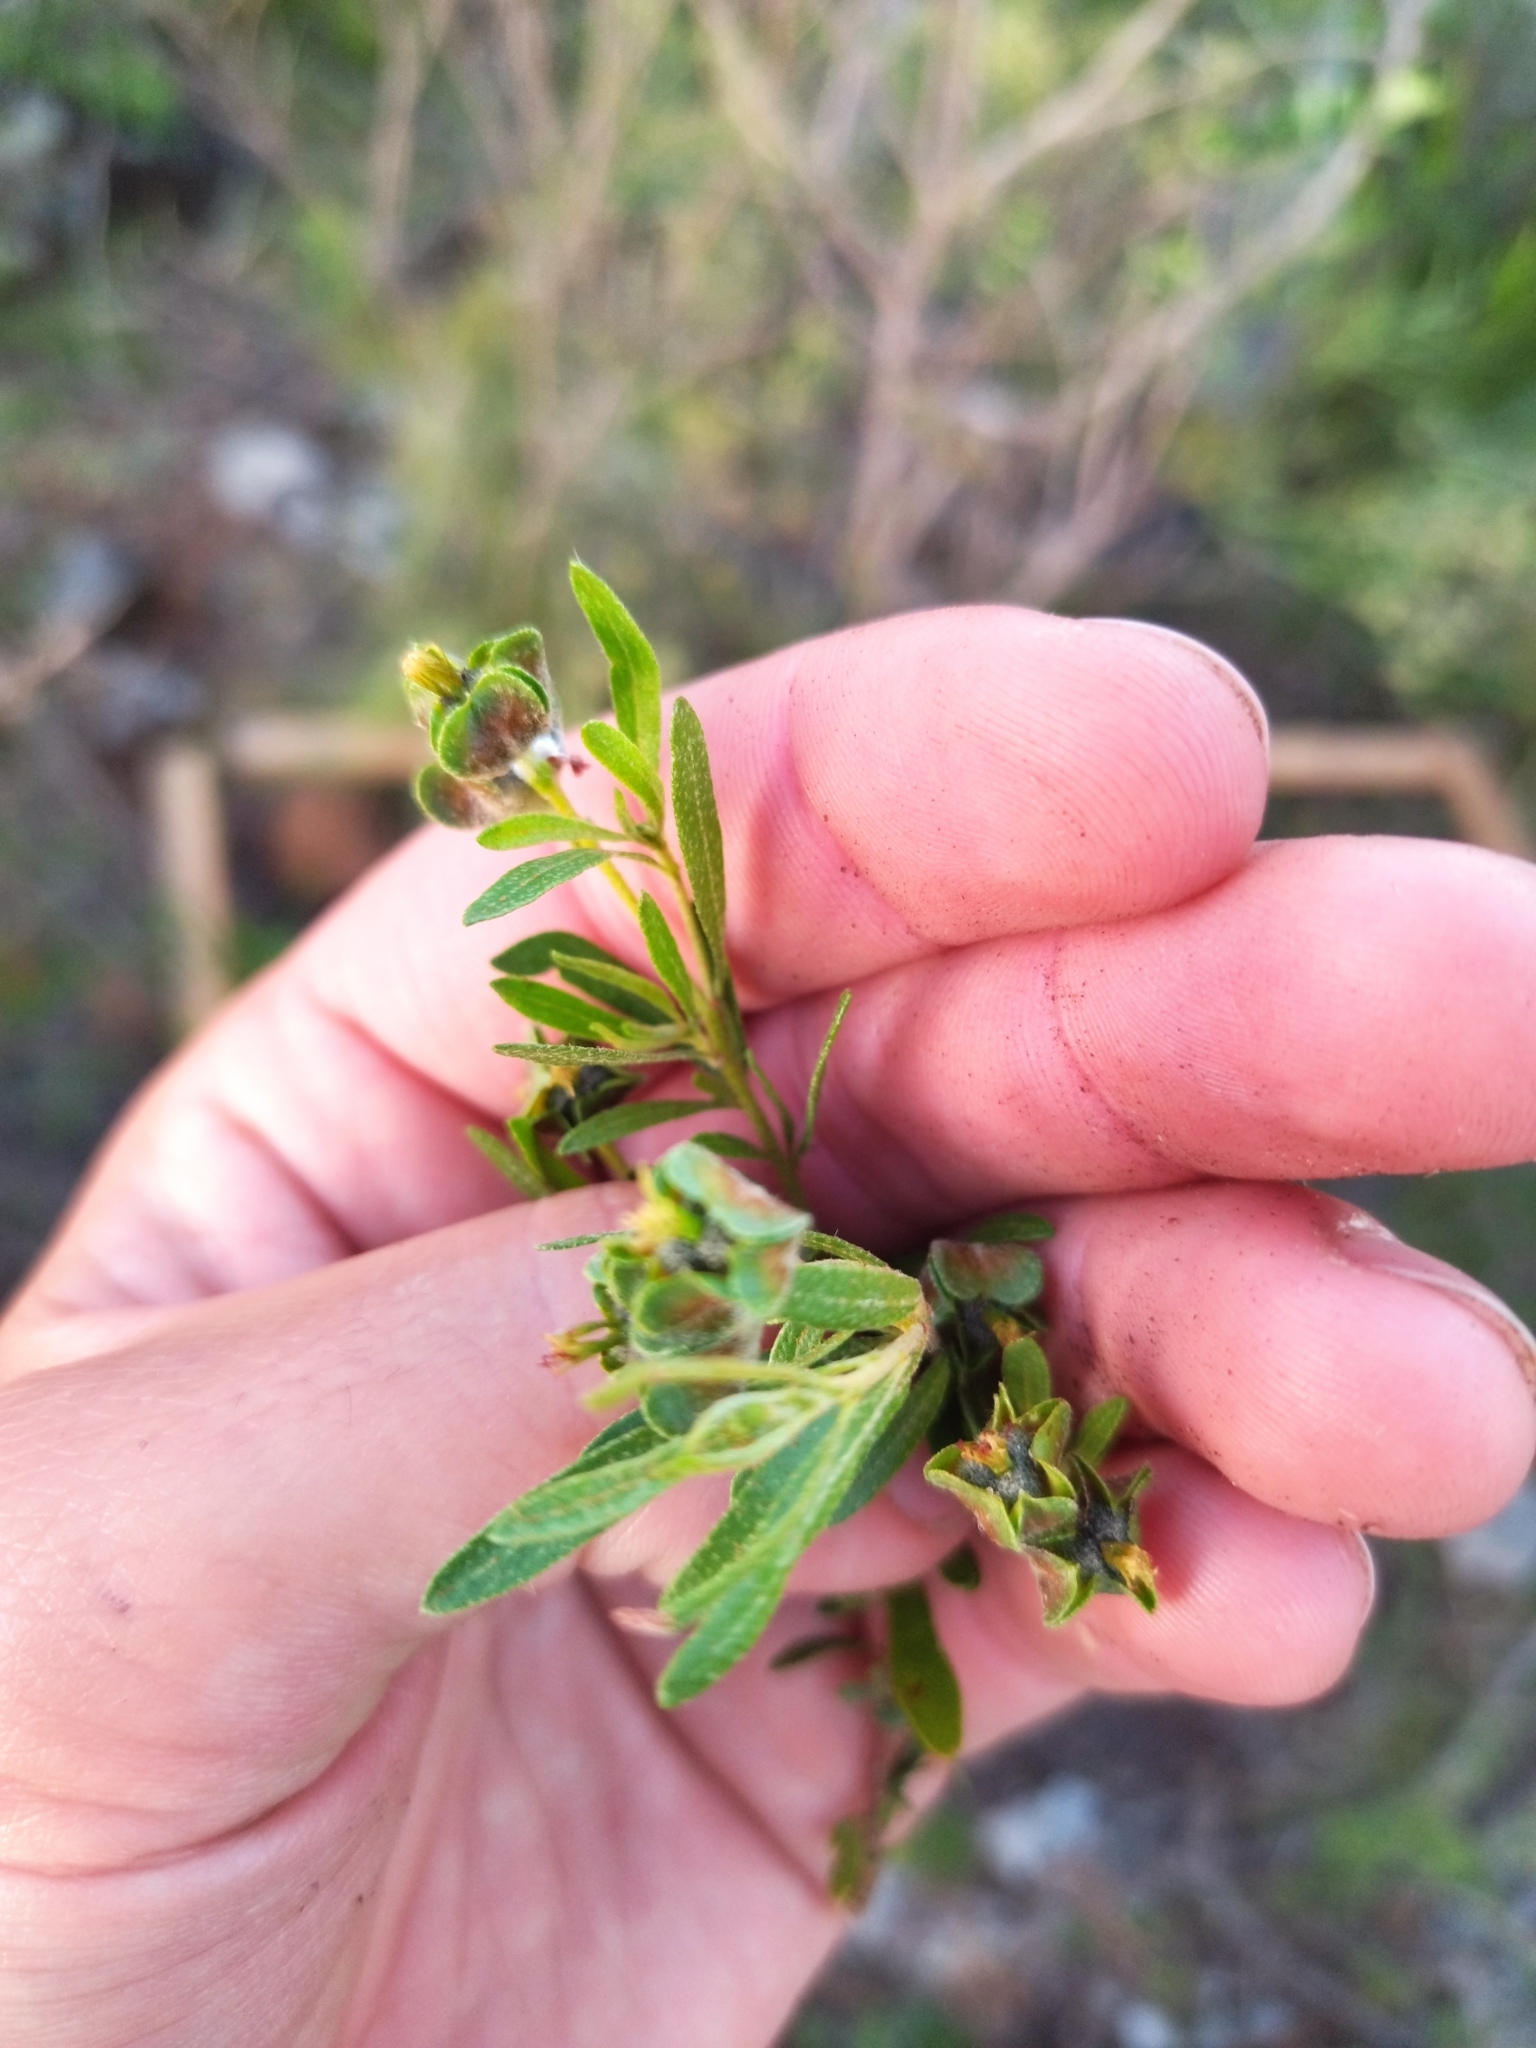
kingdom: Plantae
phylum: Tracheophyta
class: Magnoliopsida
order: Malpighiales
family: Euphorbiaceae
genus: Croton
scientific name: Croton cuchillae-nigrae
